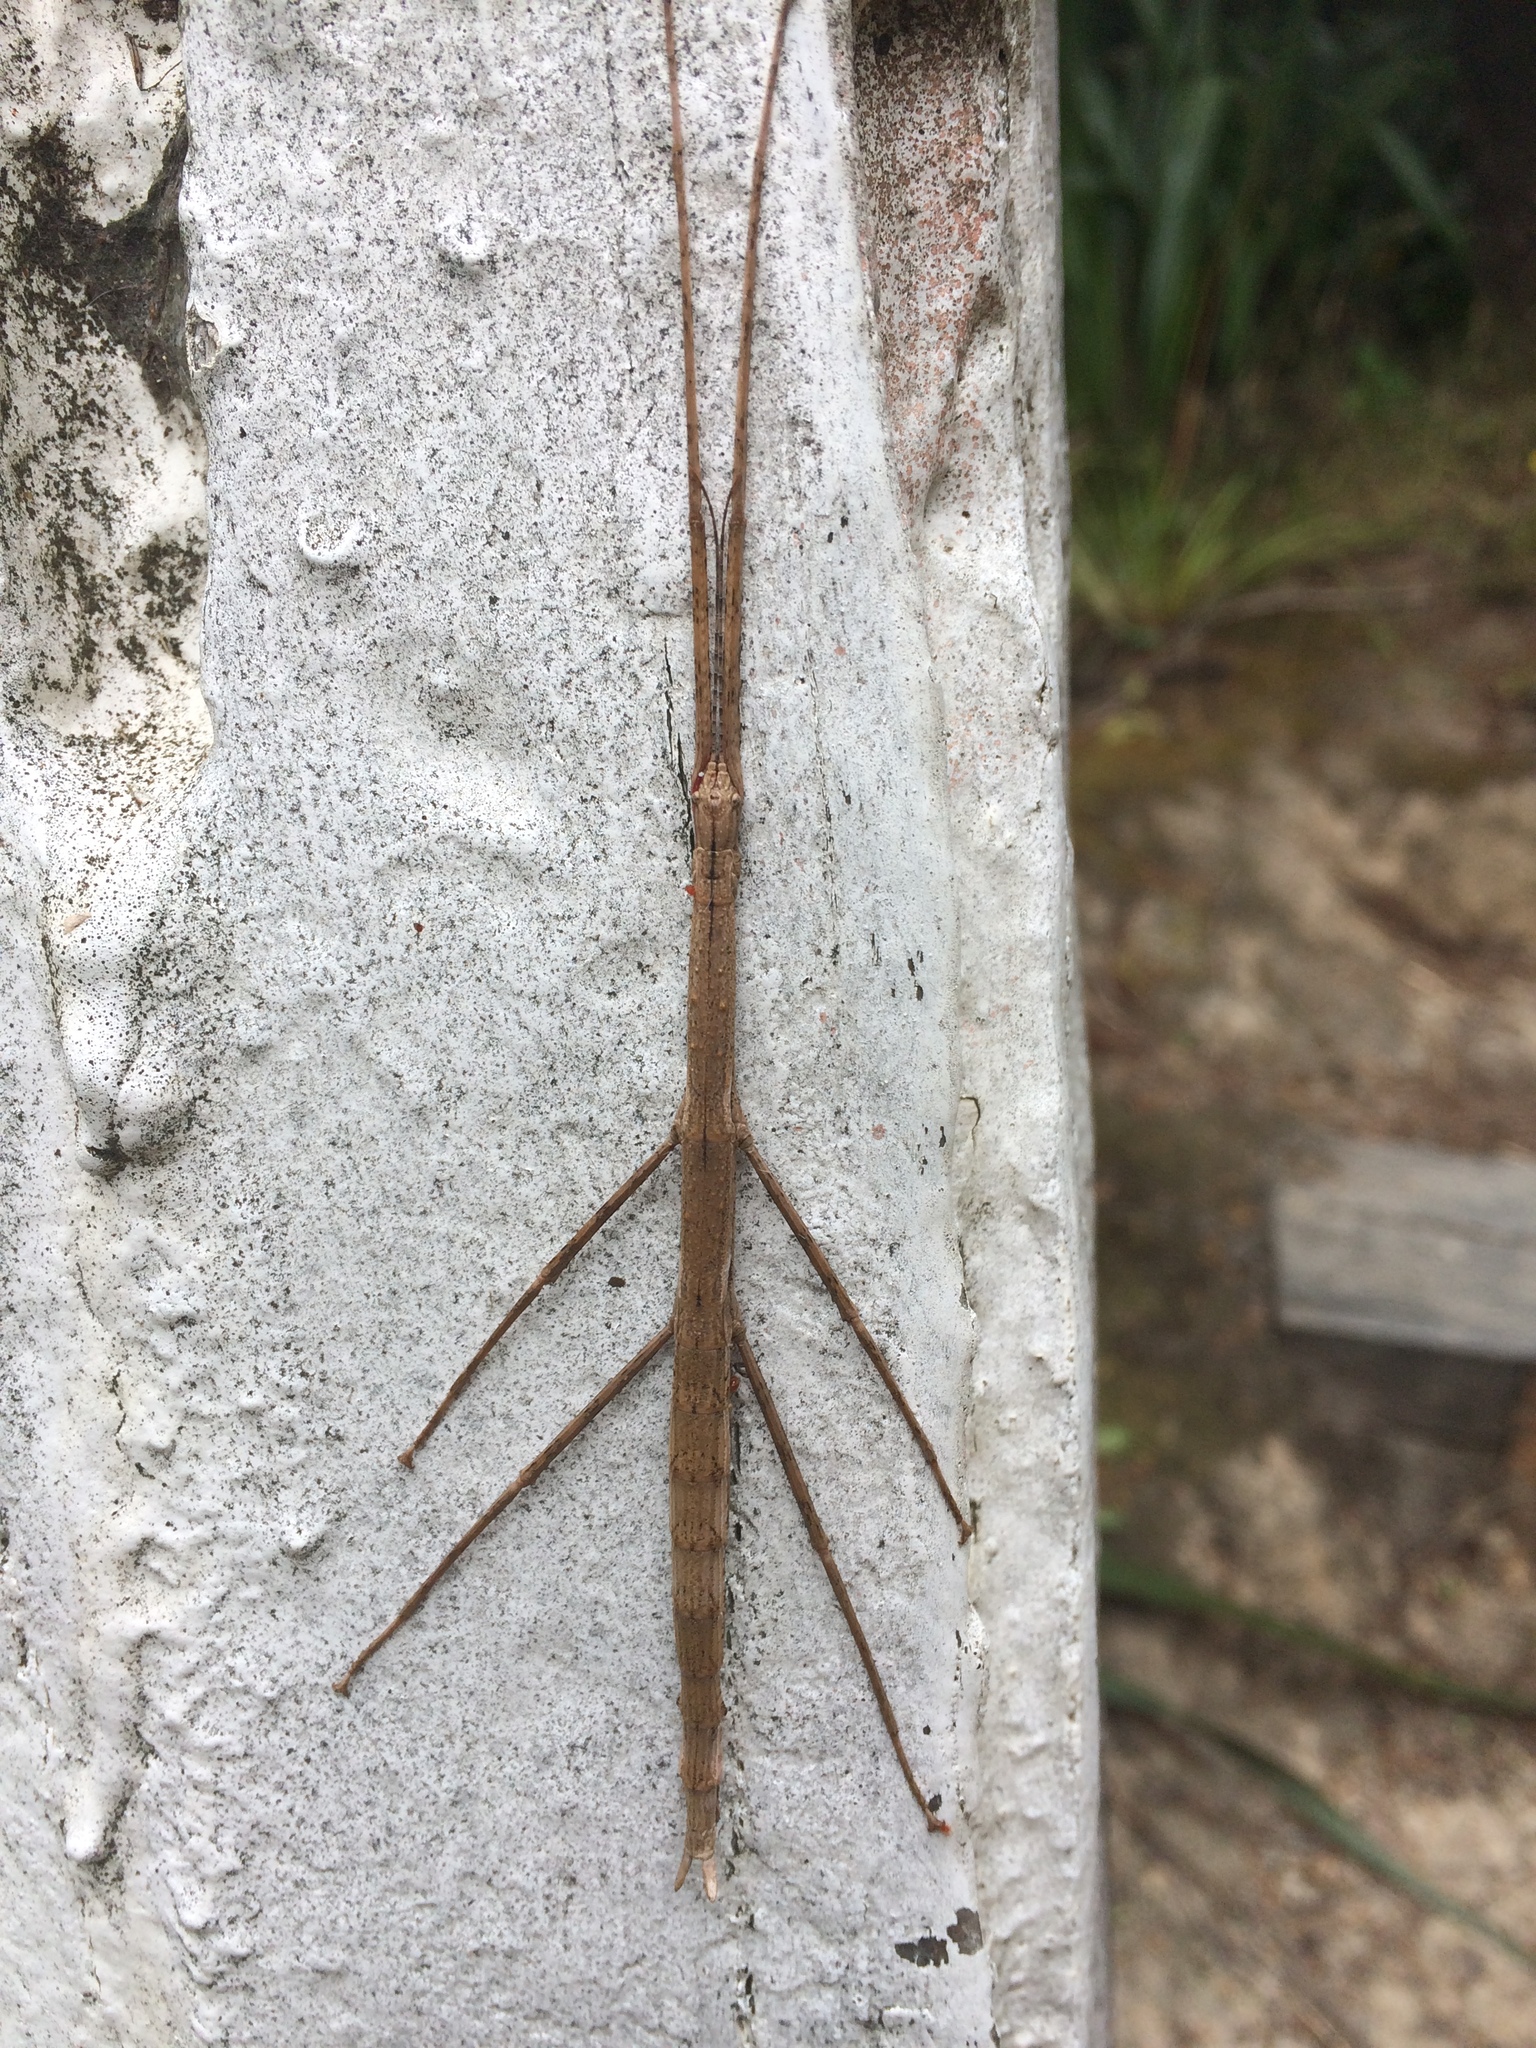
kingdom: Animalia
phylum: Arthropoda
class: Insecta
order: Phasmida
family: Phasmatidae
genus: Clitarchus
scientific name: Clitarchus hookeri
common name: Smooth stick insect
